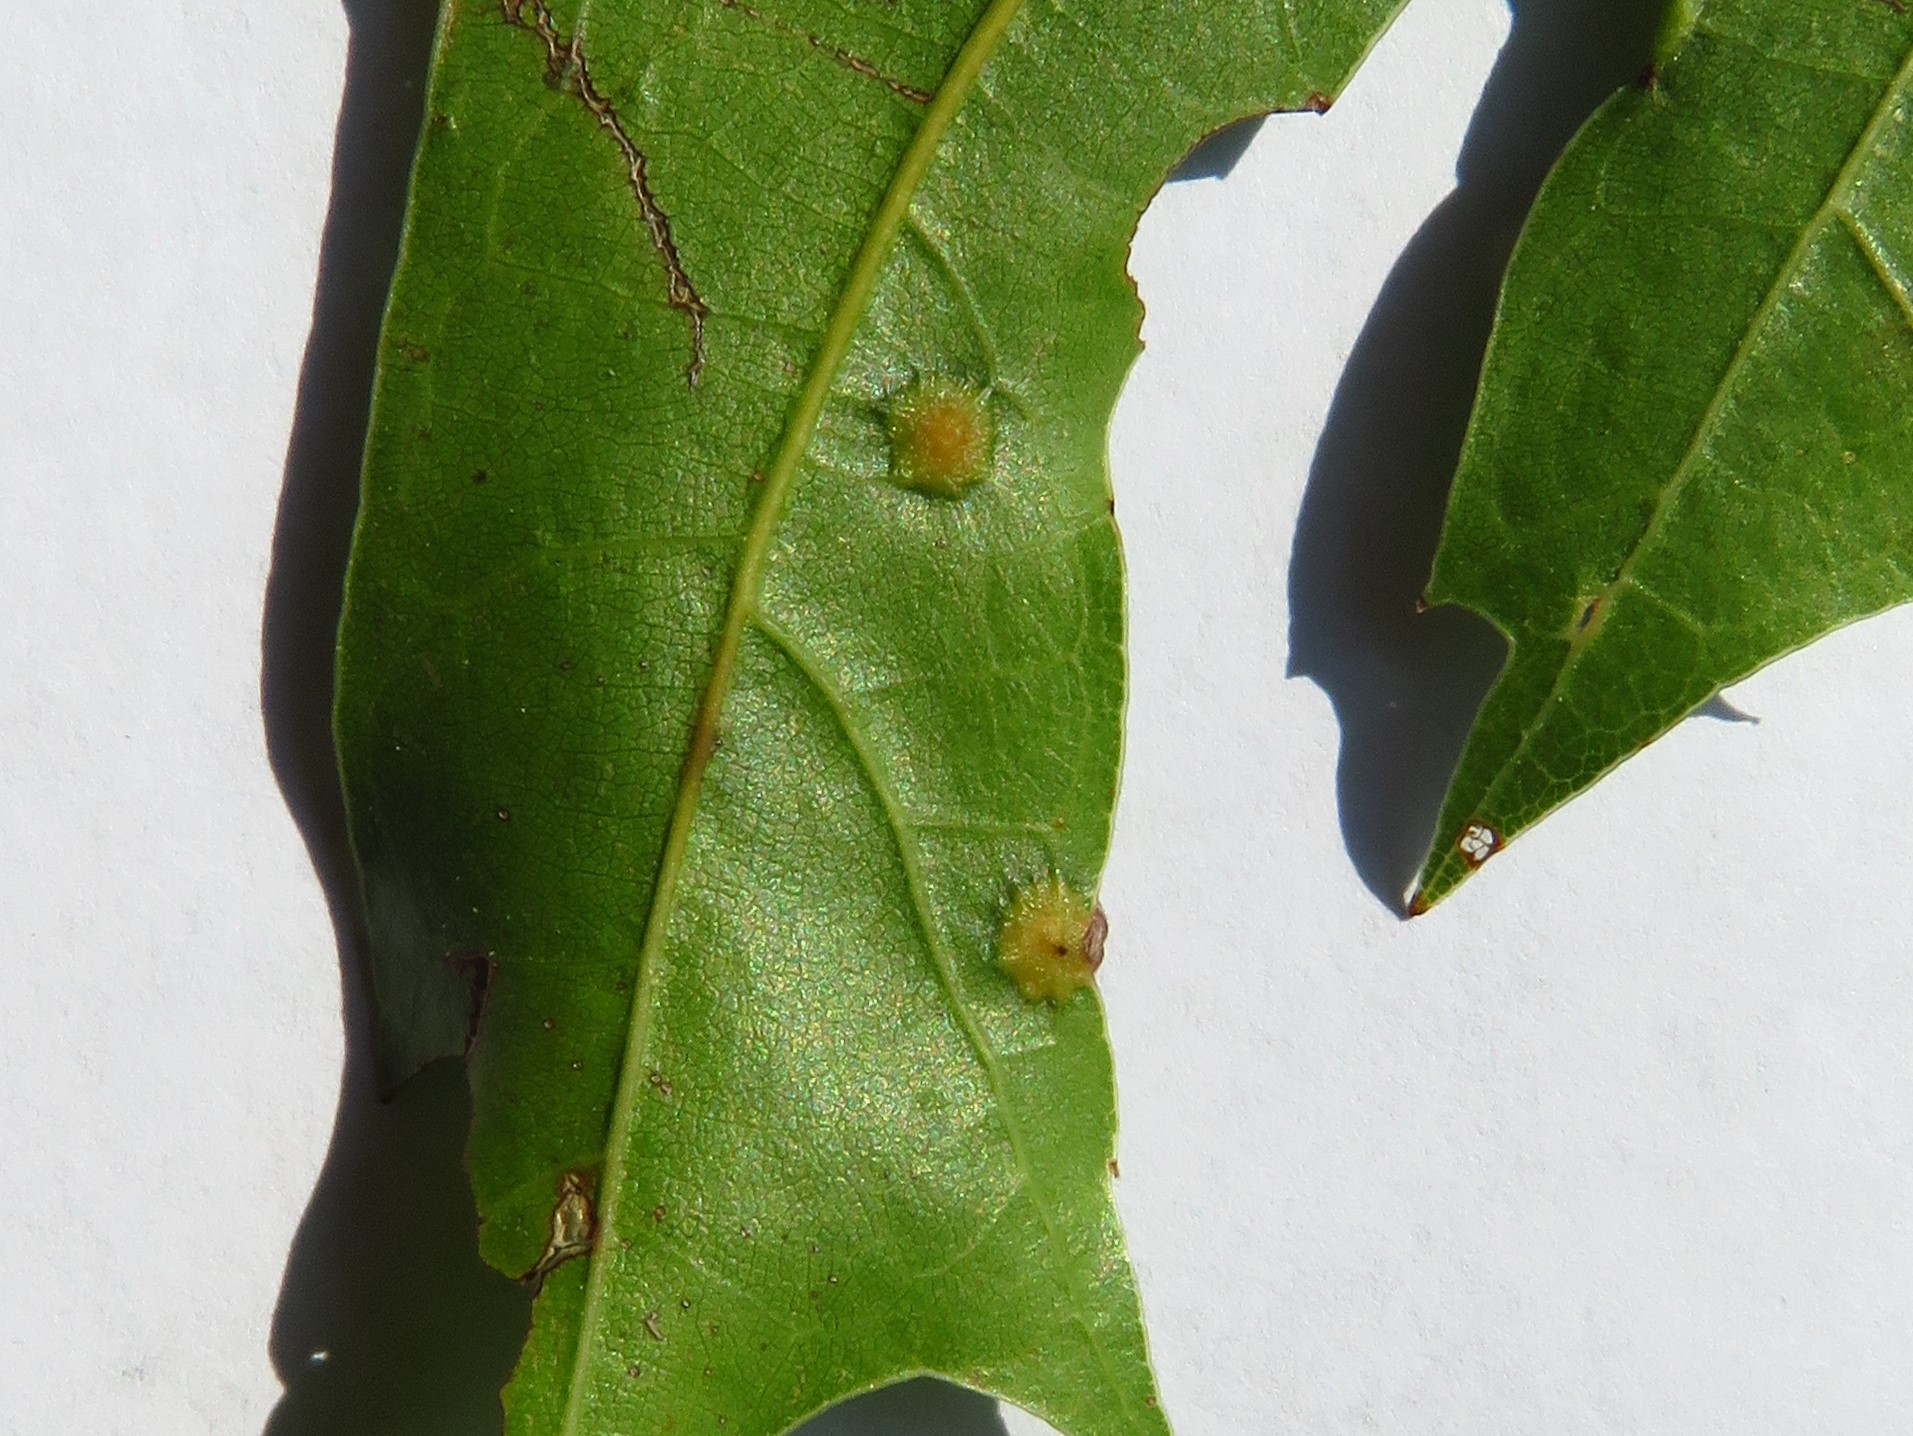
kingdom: Animalia
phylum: Arthropoda
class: Insecta
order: Diptera
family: Cecidomyiidae
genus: Polystepha
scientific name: Polystepha pilulae
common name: Oak leaf gall midge
